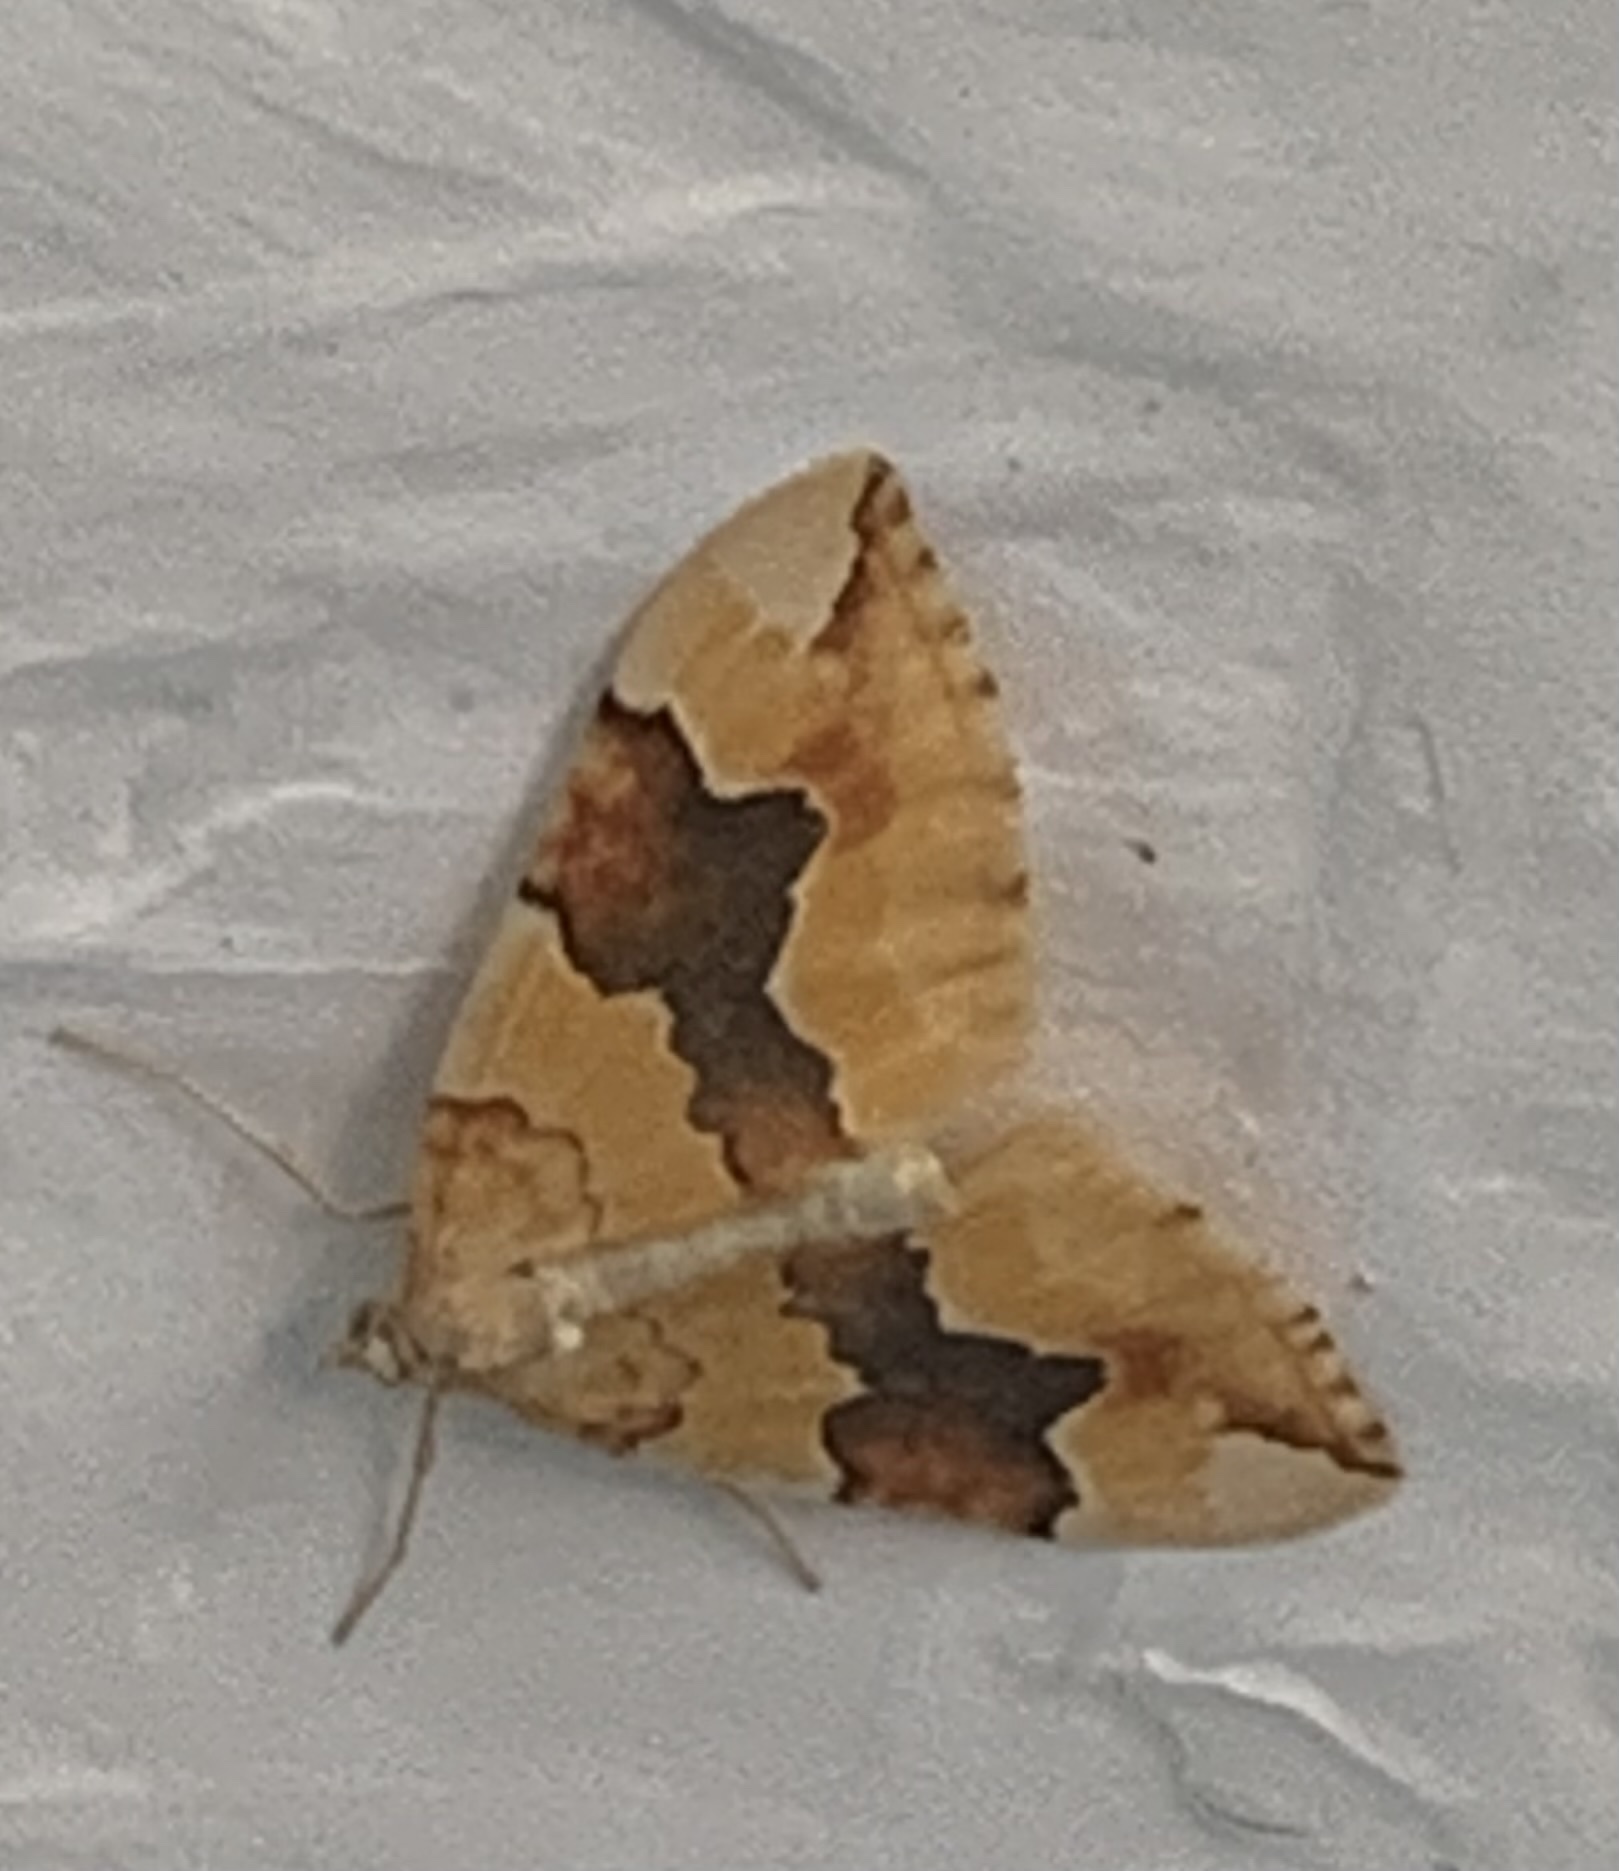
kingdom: Animalia
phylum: Arthropoda
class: Insecta
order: Lepidoptera
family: Geometridae
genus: Cidaria
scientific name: Cidaria fulvata
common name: Barred yellow
